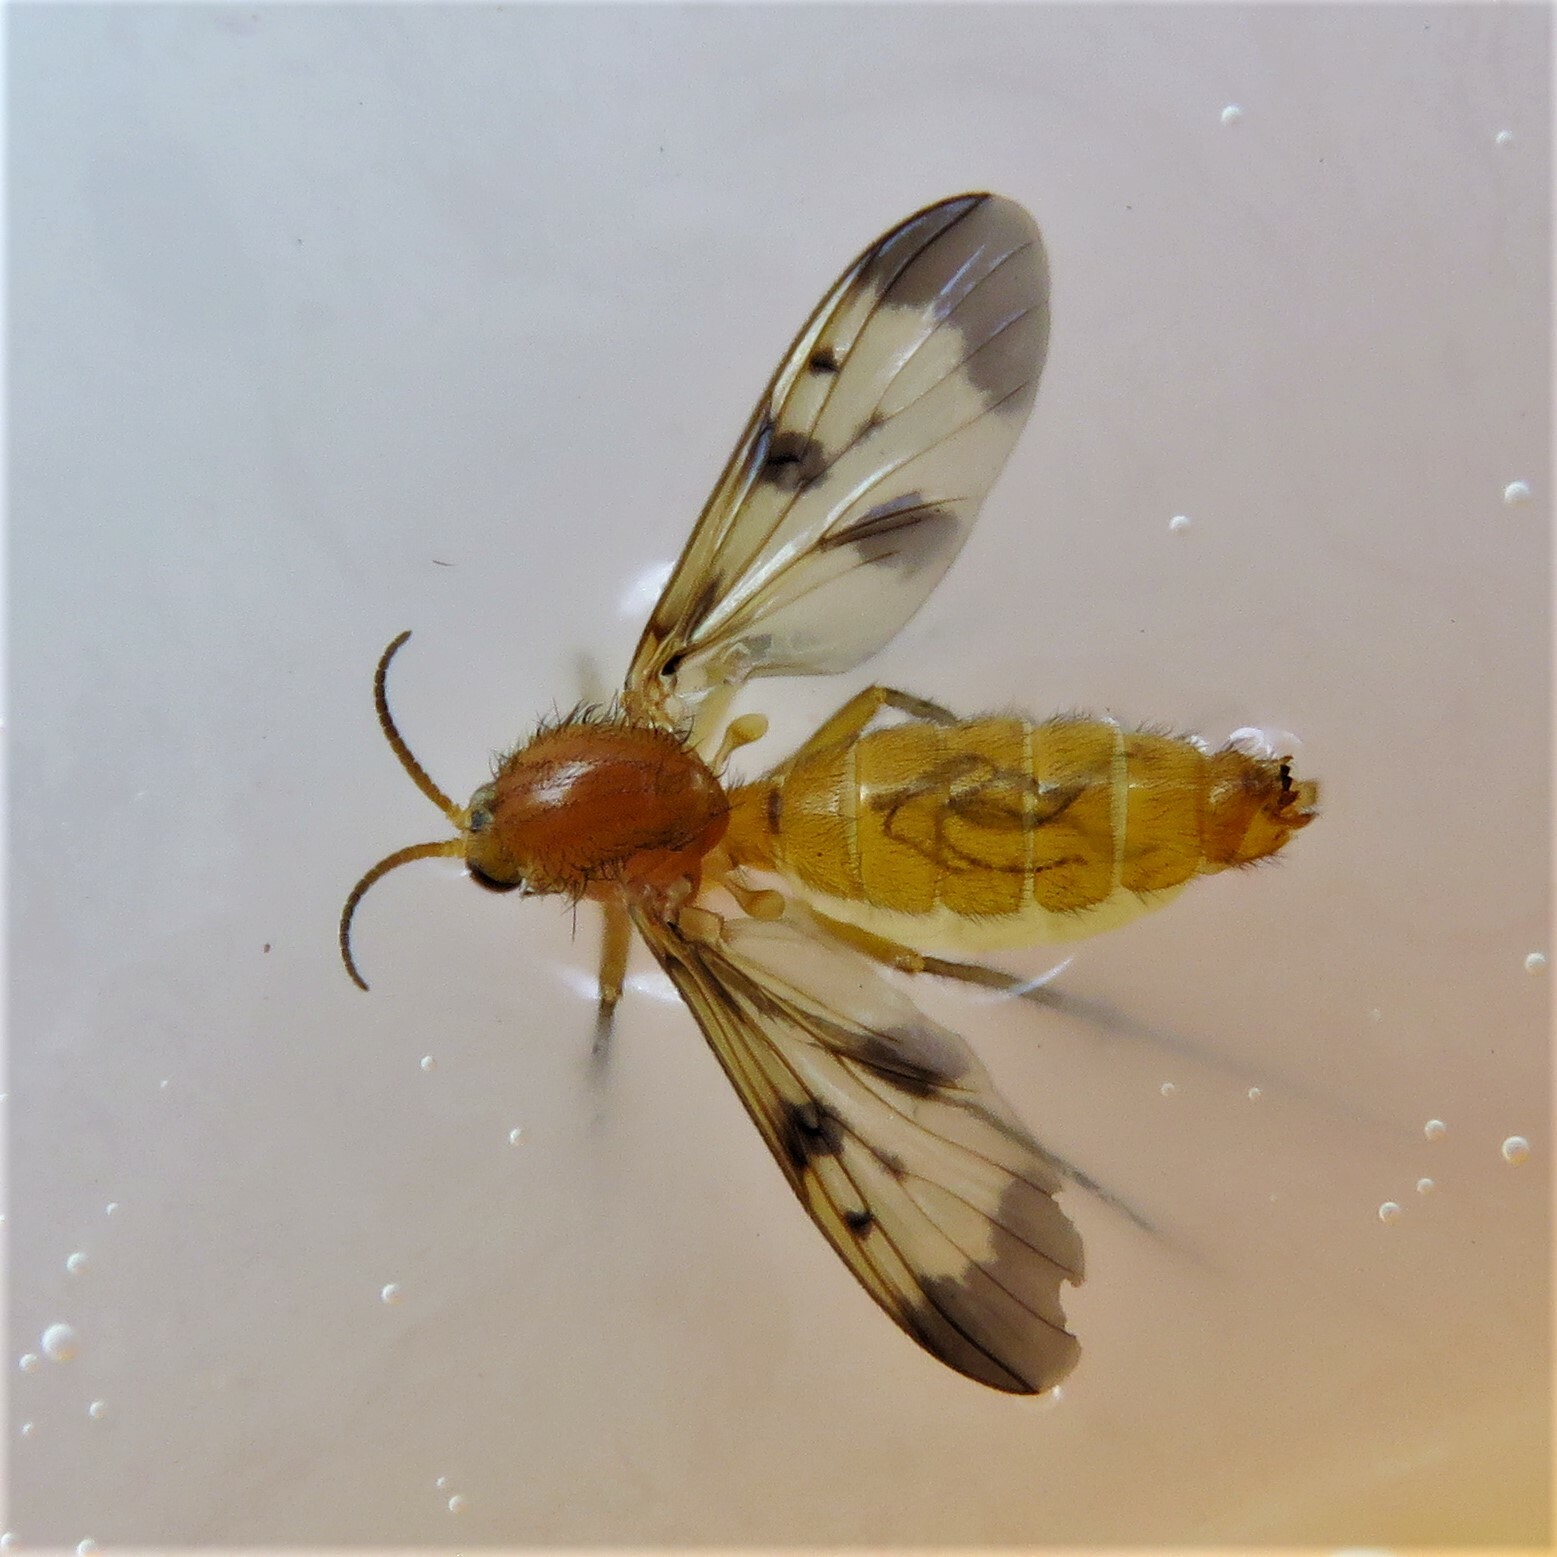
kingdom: Animalia
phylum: Arthropoda
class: Insecta
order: Diptera
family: Mycetophilidae
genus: Neoempheria
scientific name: Neoempheria illustris
